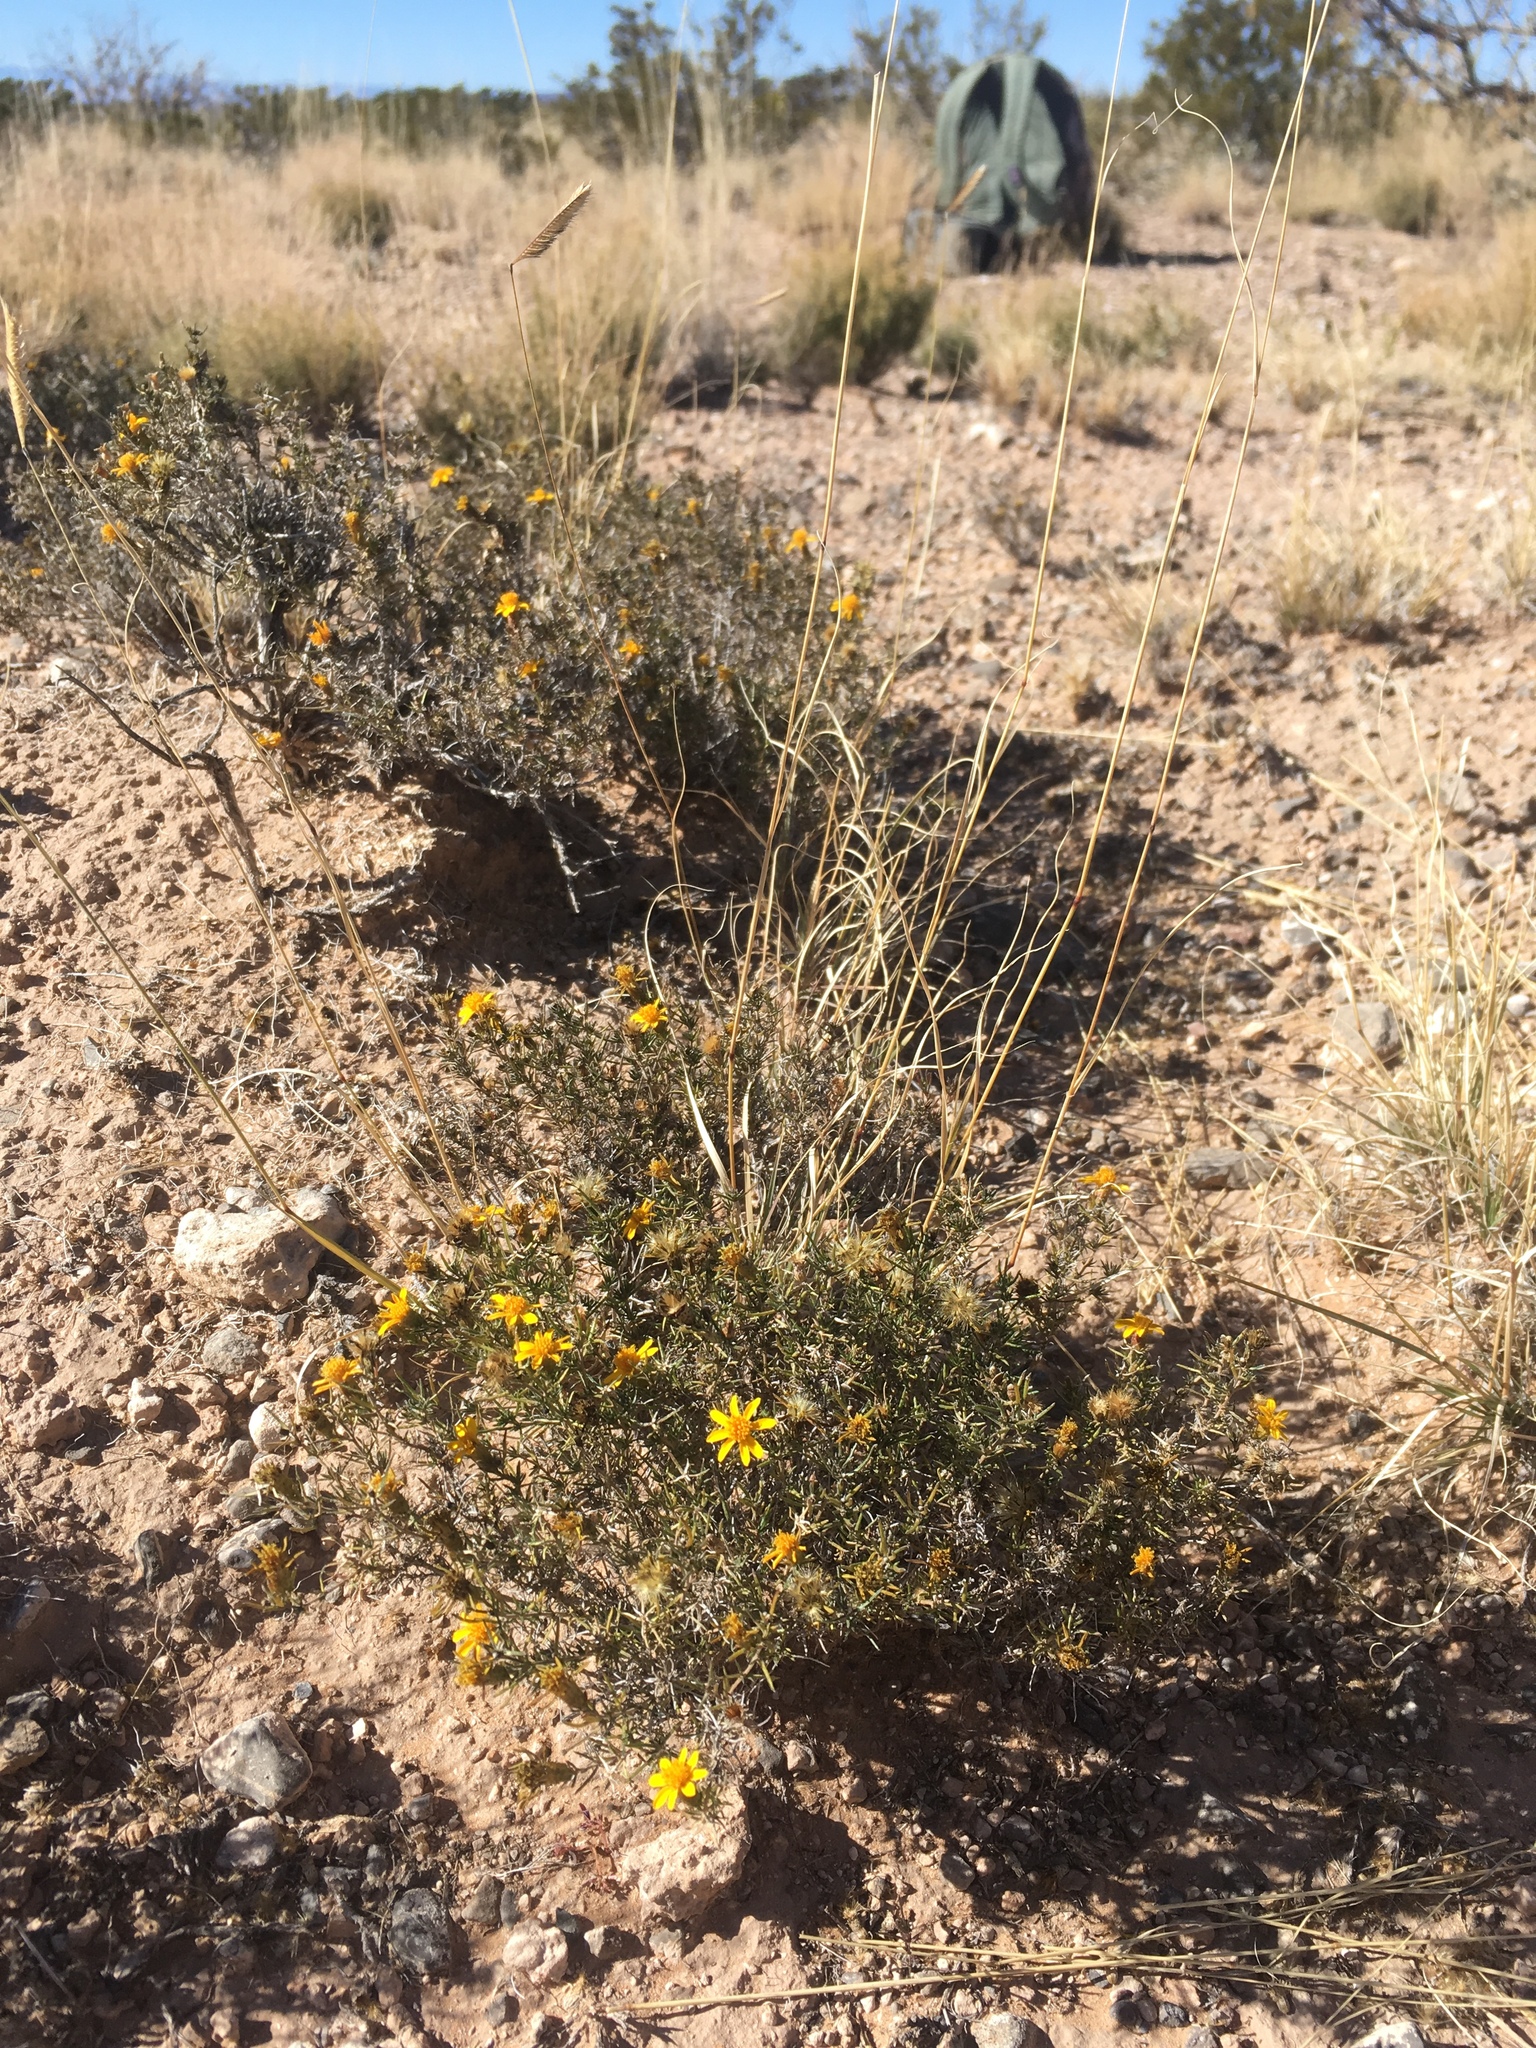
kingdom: Plantae
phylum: Tracheophyta
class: Magnoliopsida
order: Asterales
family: Asteraceae
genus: Thymophylla
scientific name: Thymophylla acerosa
